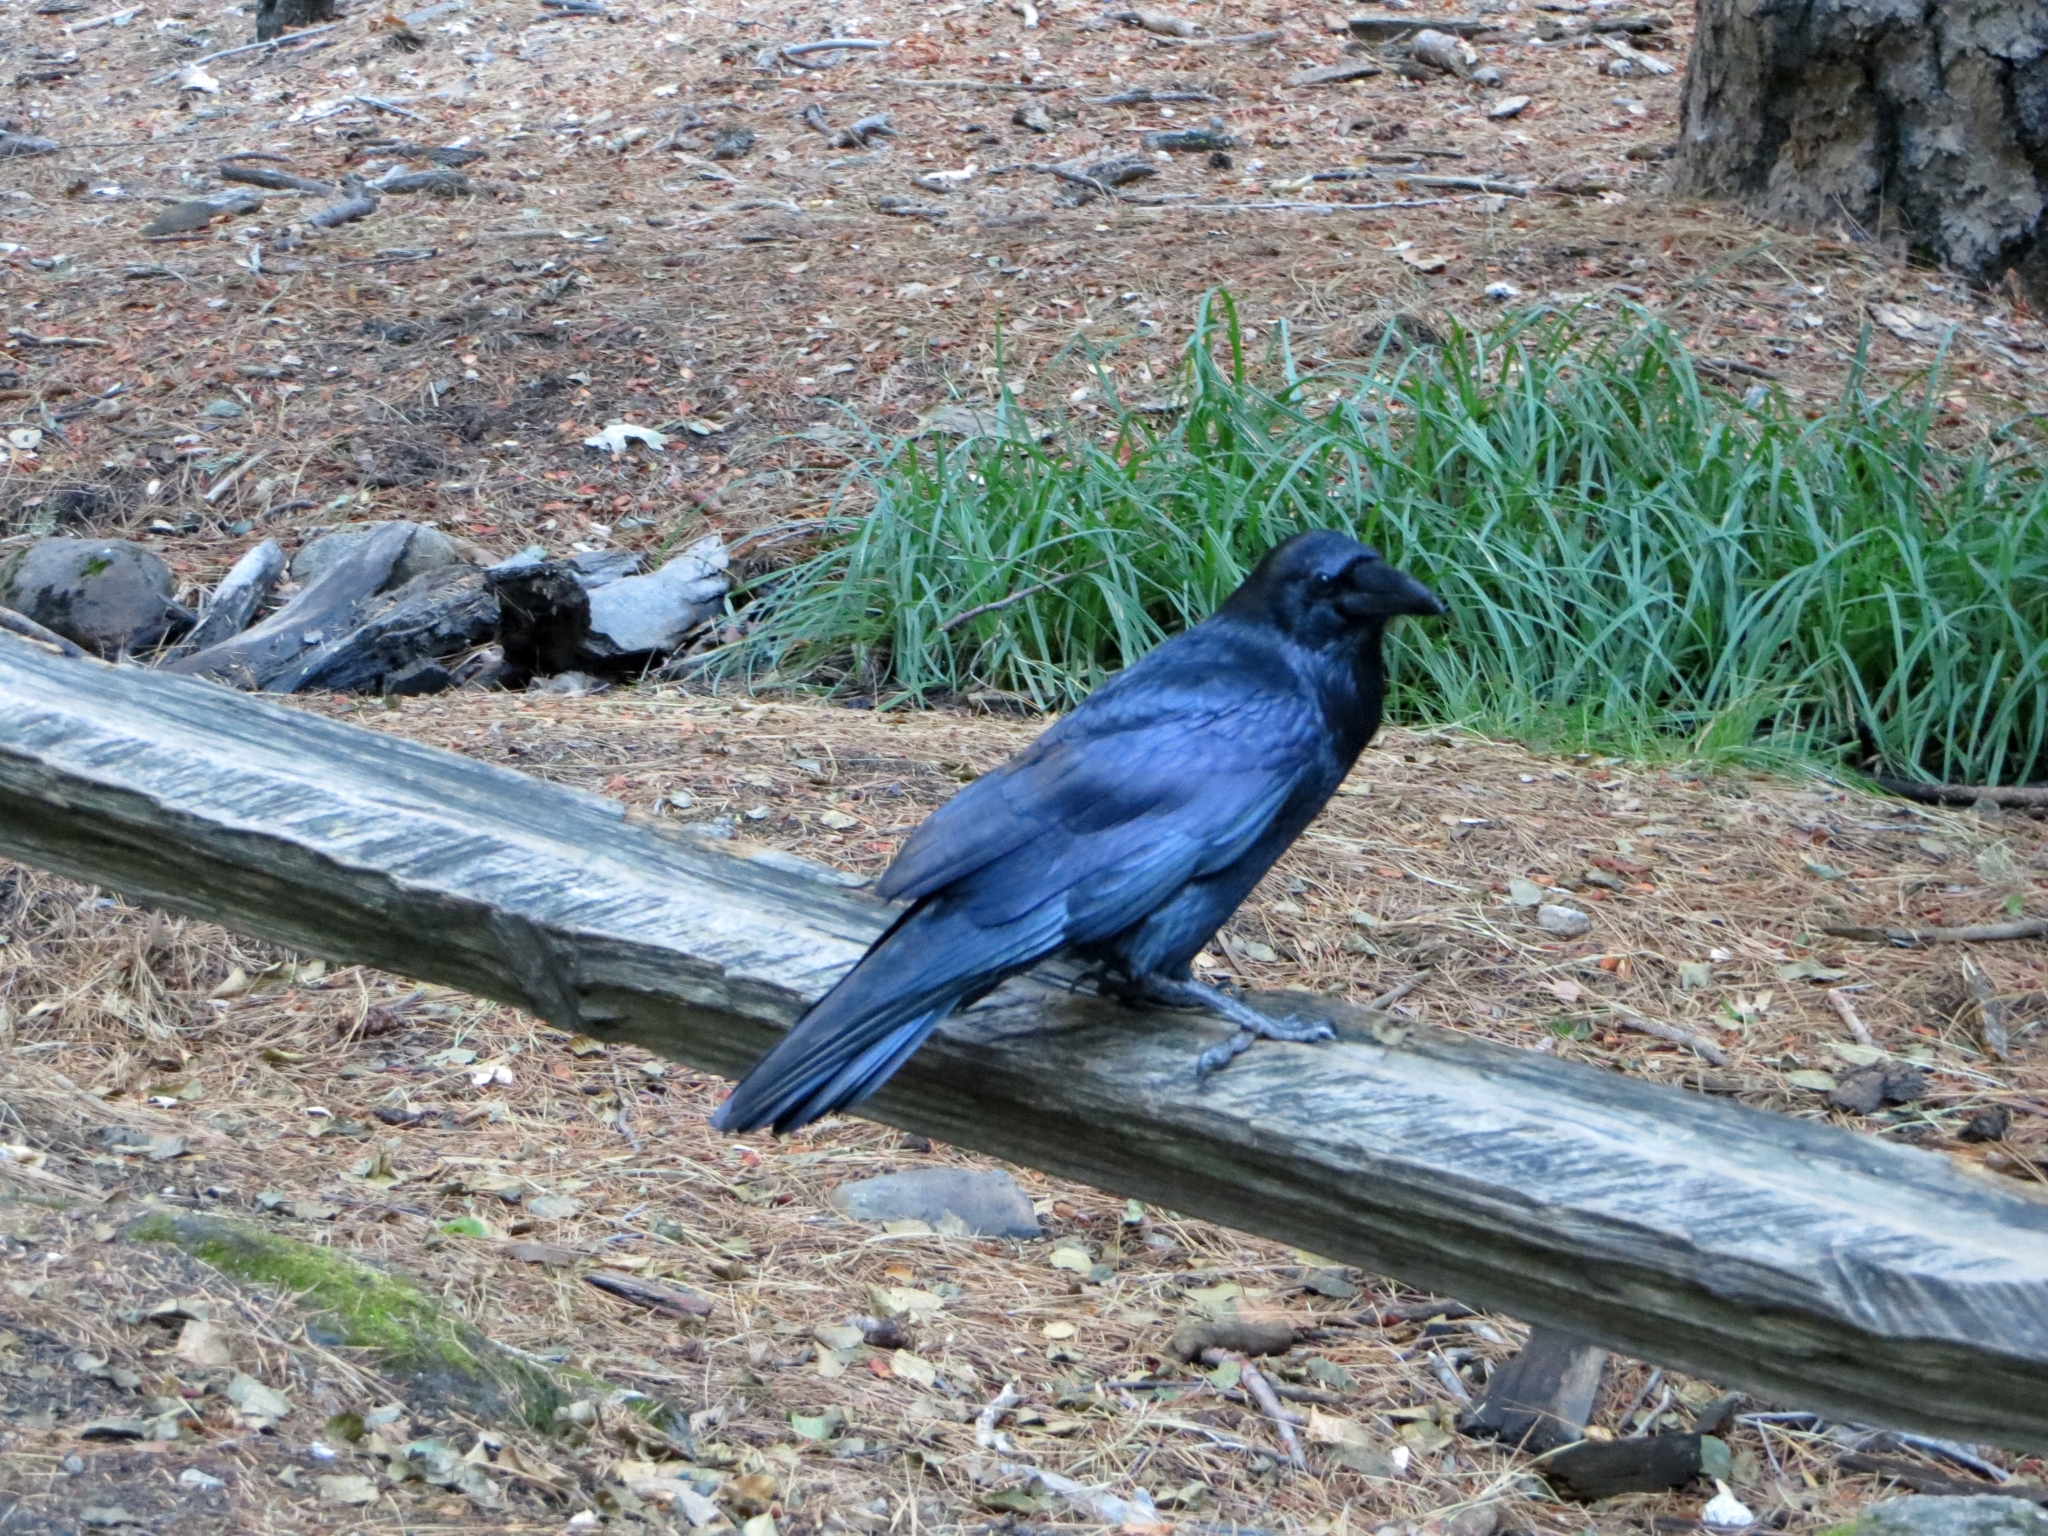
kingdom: Animalia
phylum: Chordata
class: Aves
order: Passeriformes
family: Corvidae
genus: Corvus
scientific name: Corvus corax
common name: Common raven
